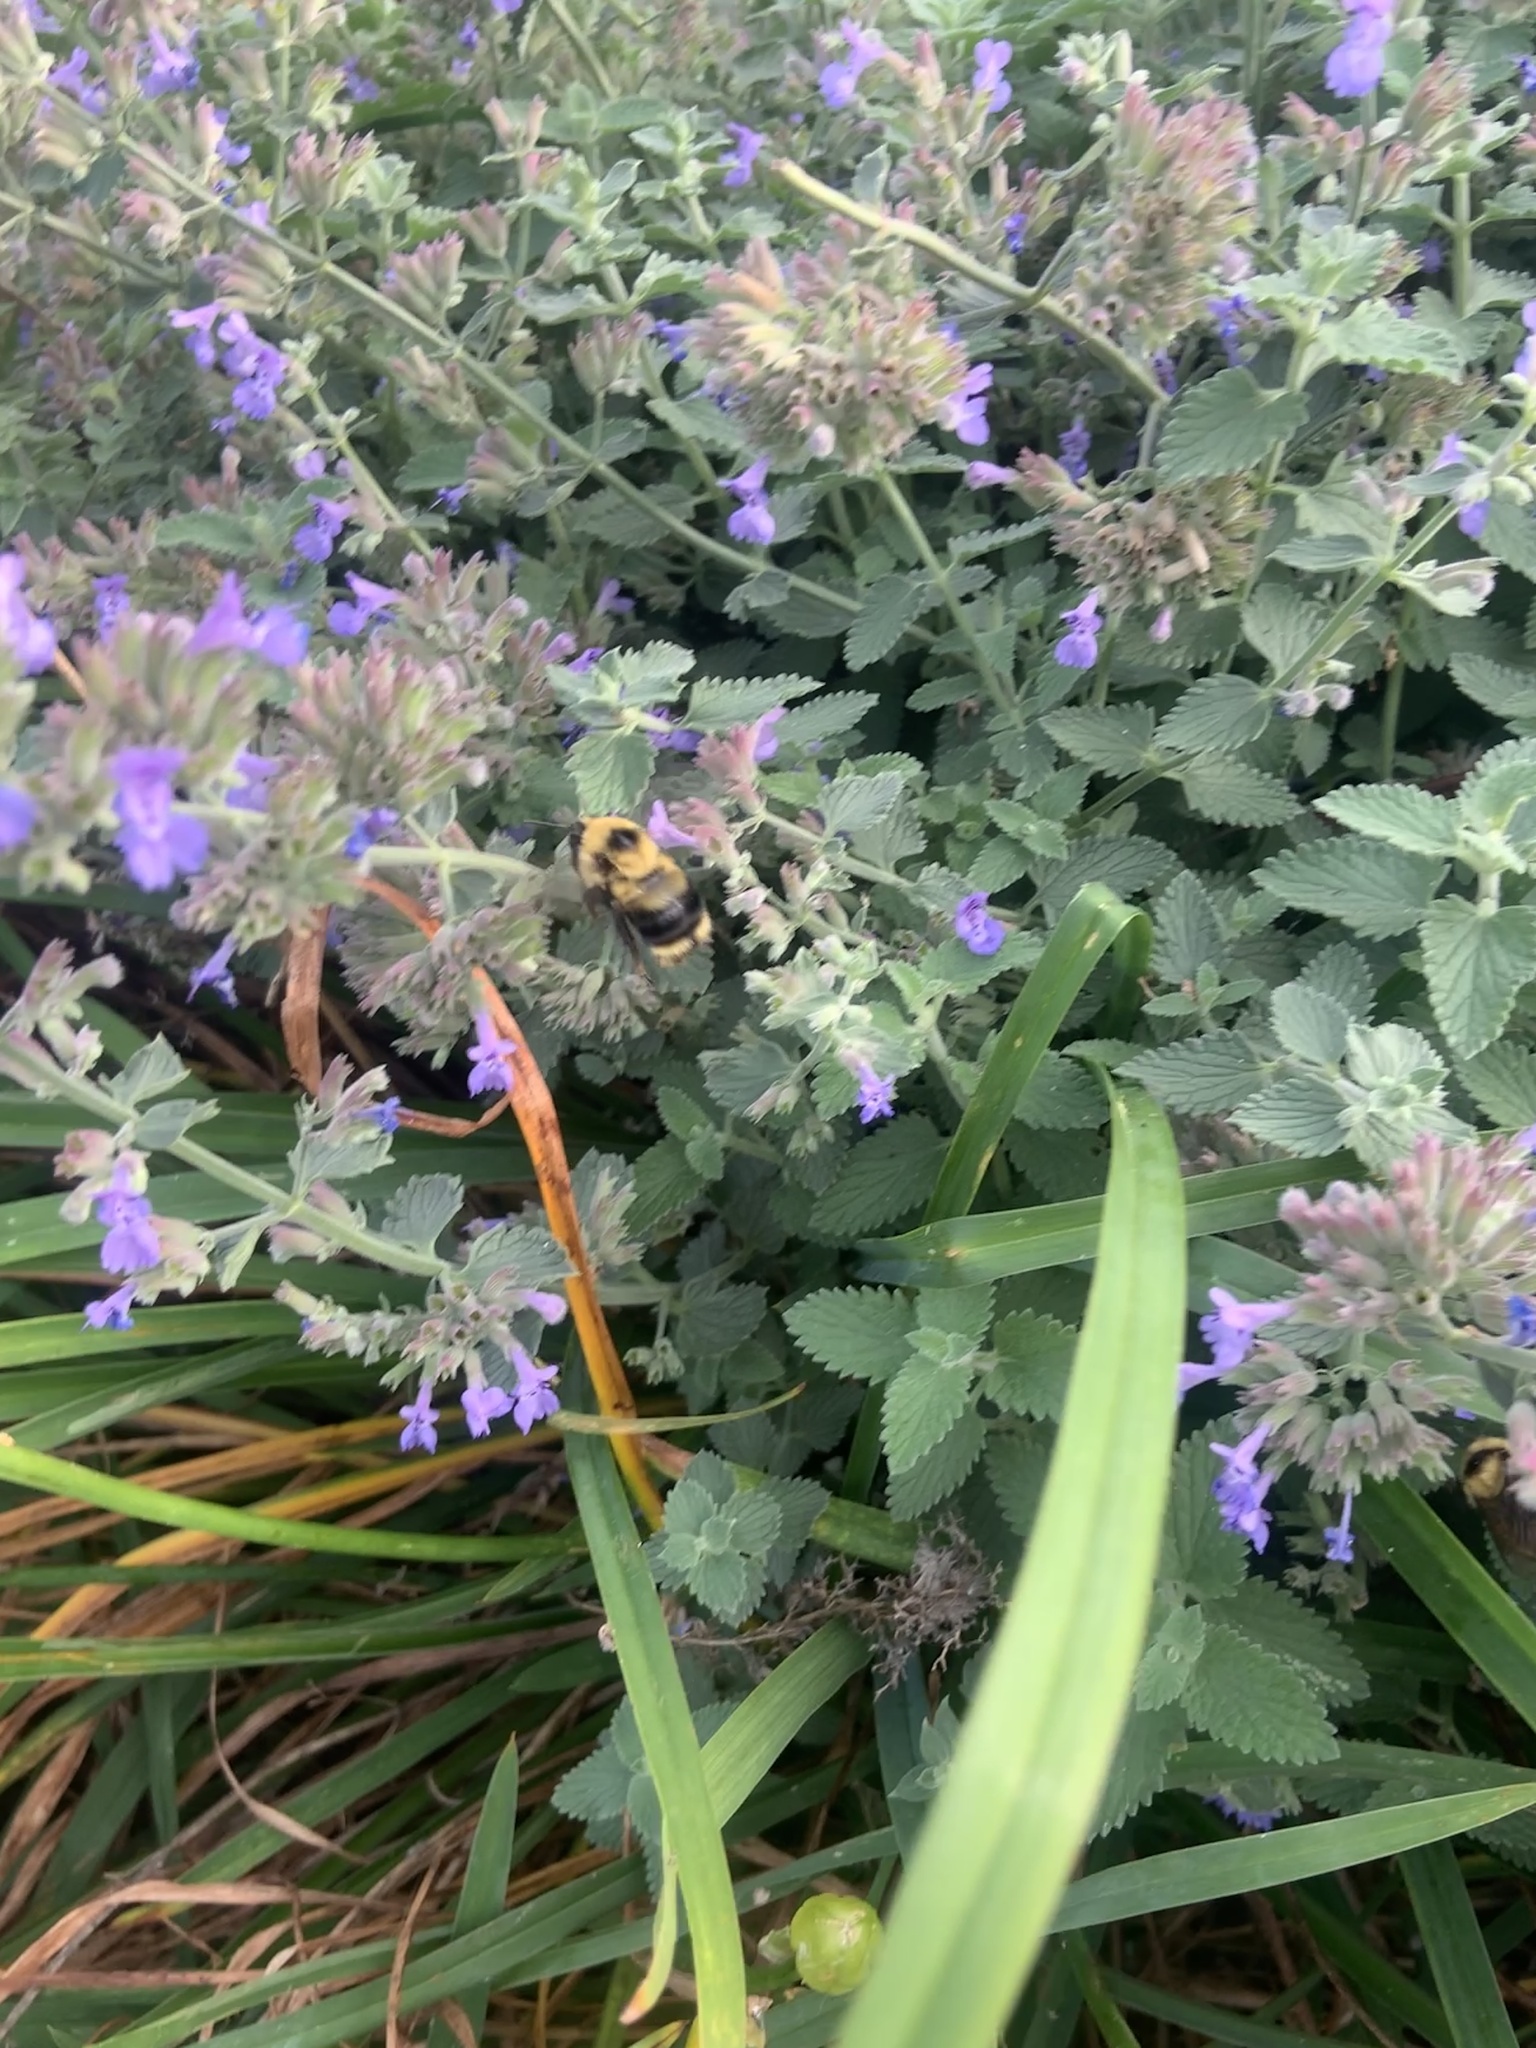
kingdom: Animalia
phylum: Arthropoda
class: Insecta
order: Hymenoptera
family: Apidae
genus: Bombus
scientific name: Bombus rufocinctus
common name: Red-belted bumble bee
